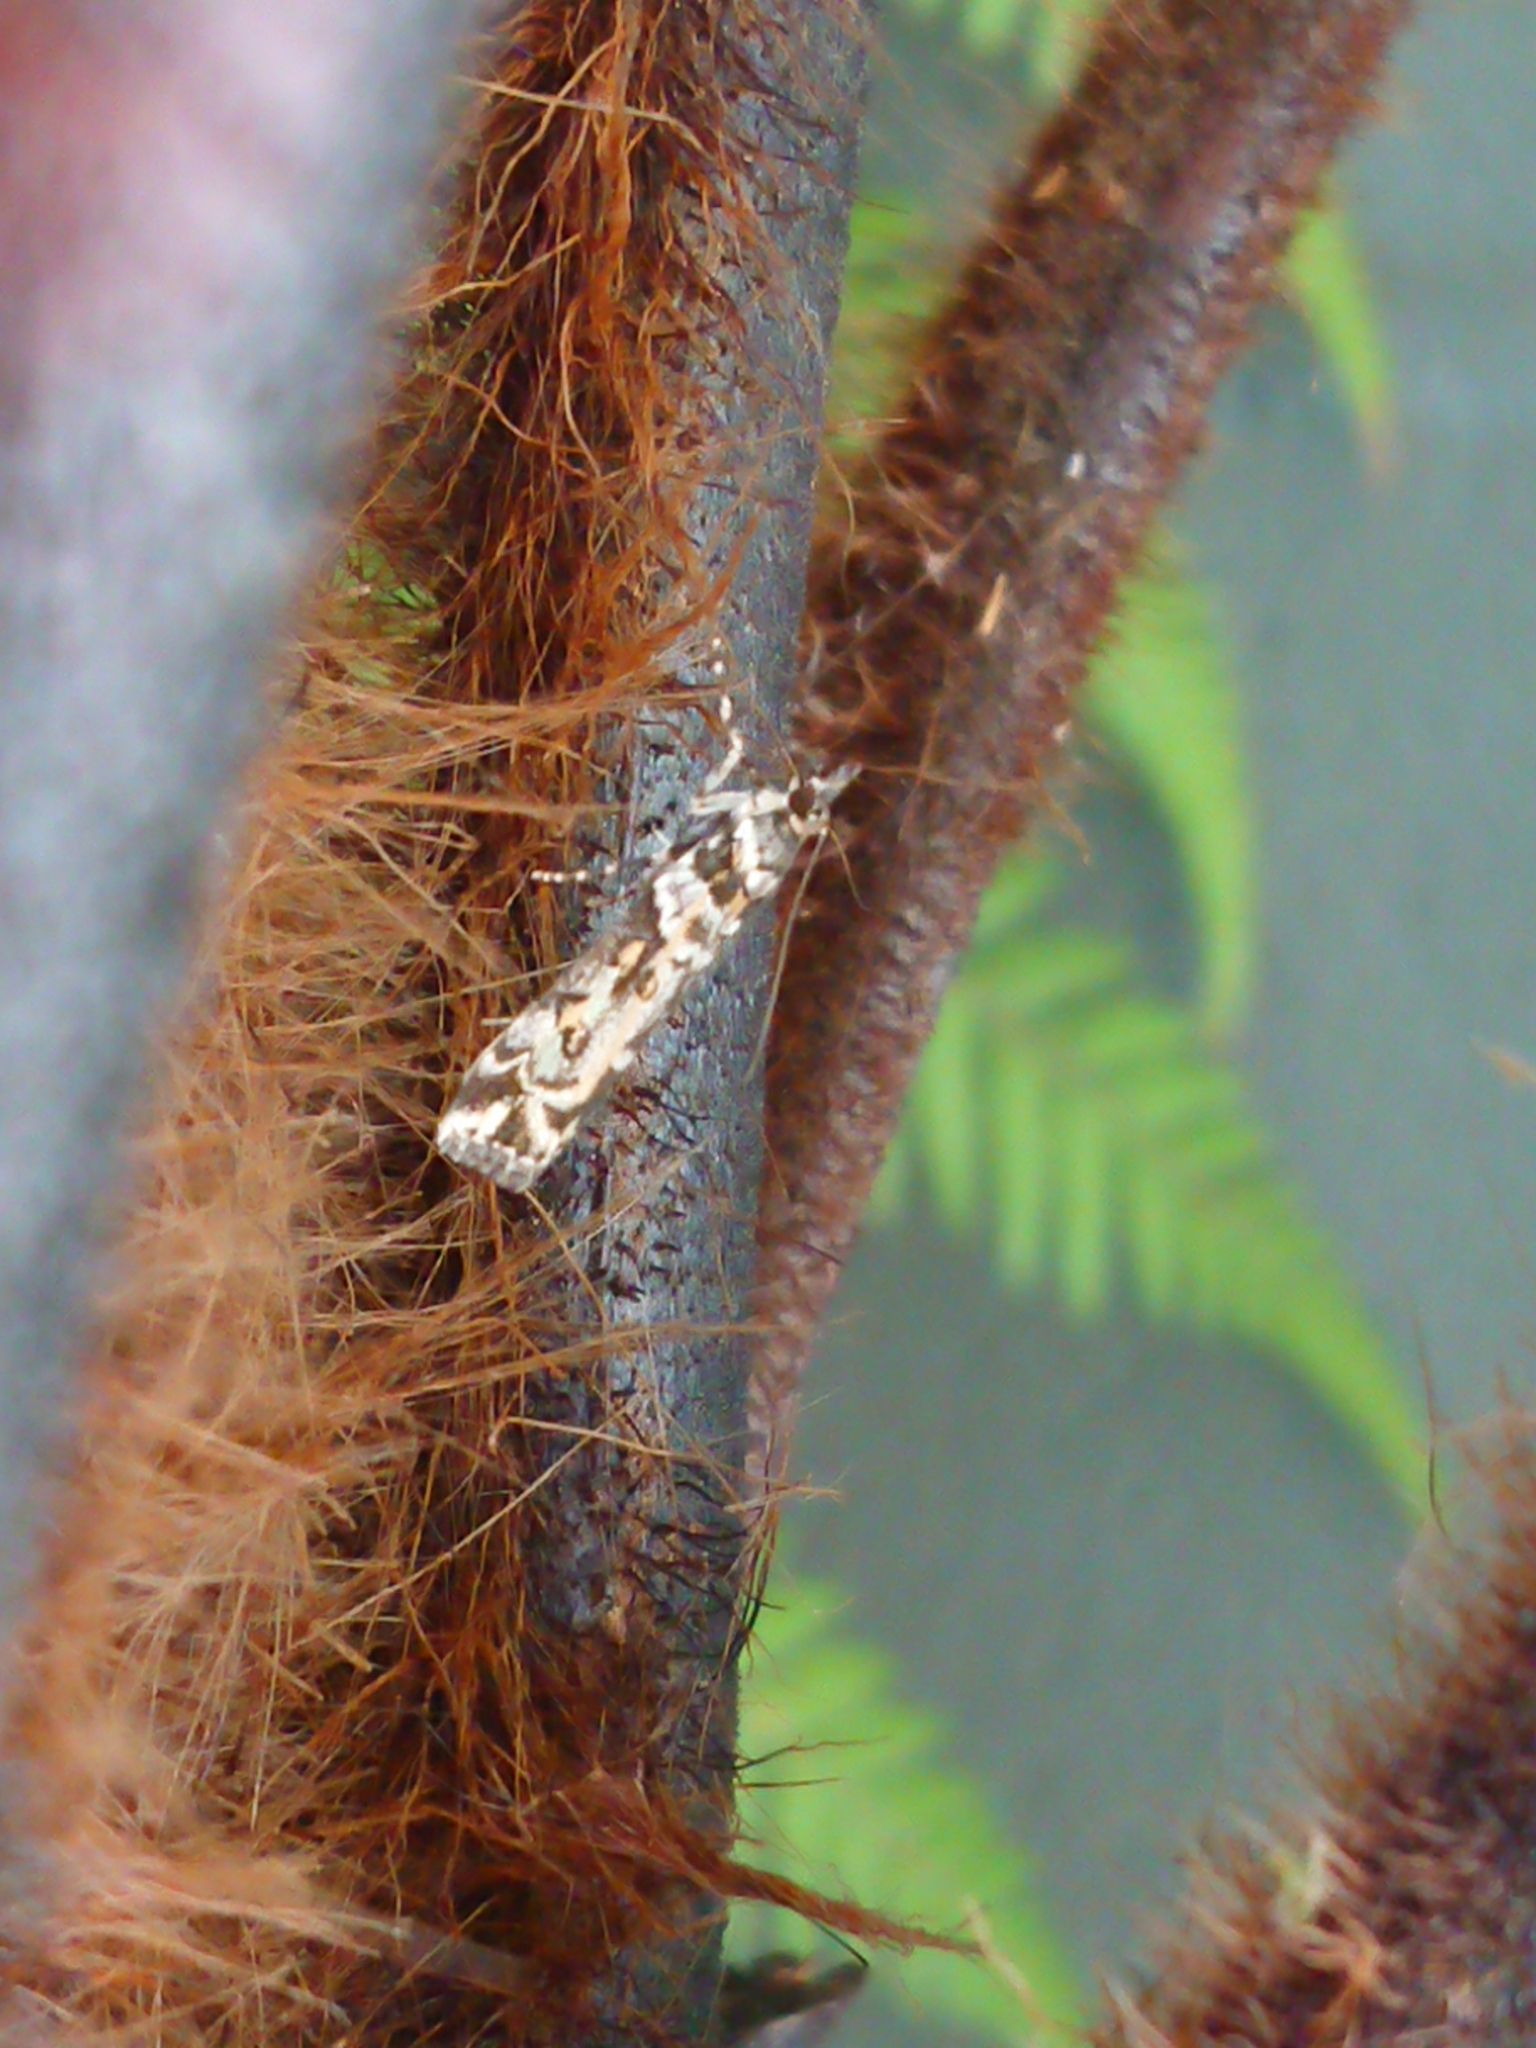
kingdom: Animalia
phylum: Arthropoda
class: Insecta
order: Lepidoptera
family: Crambidae
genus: Eudonia
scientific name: Eudonia diphtheralis
